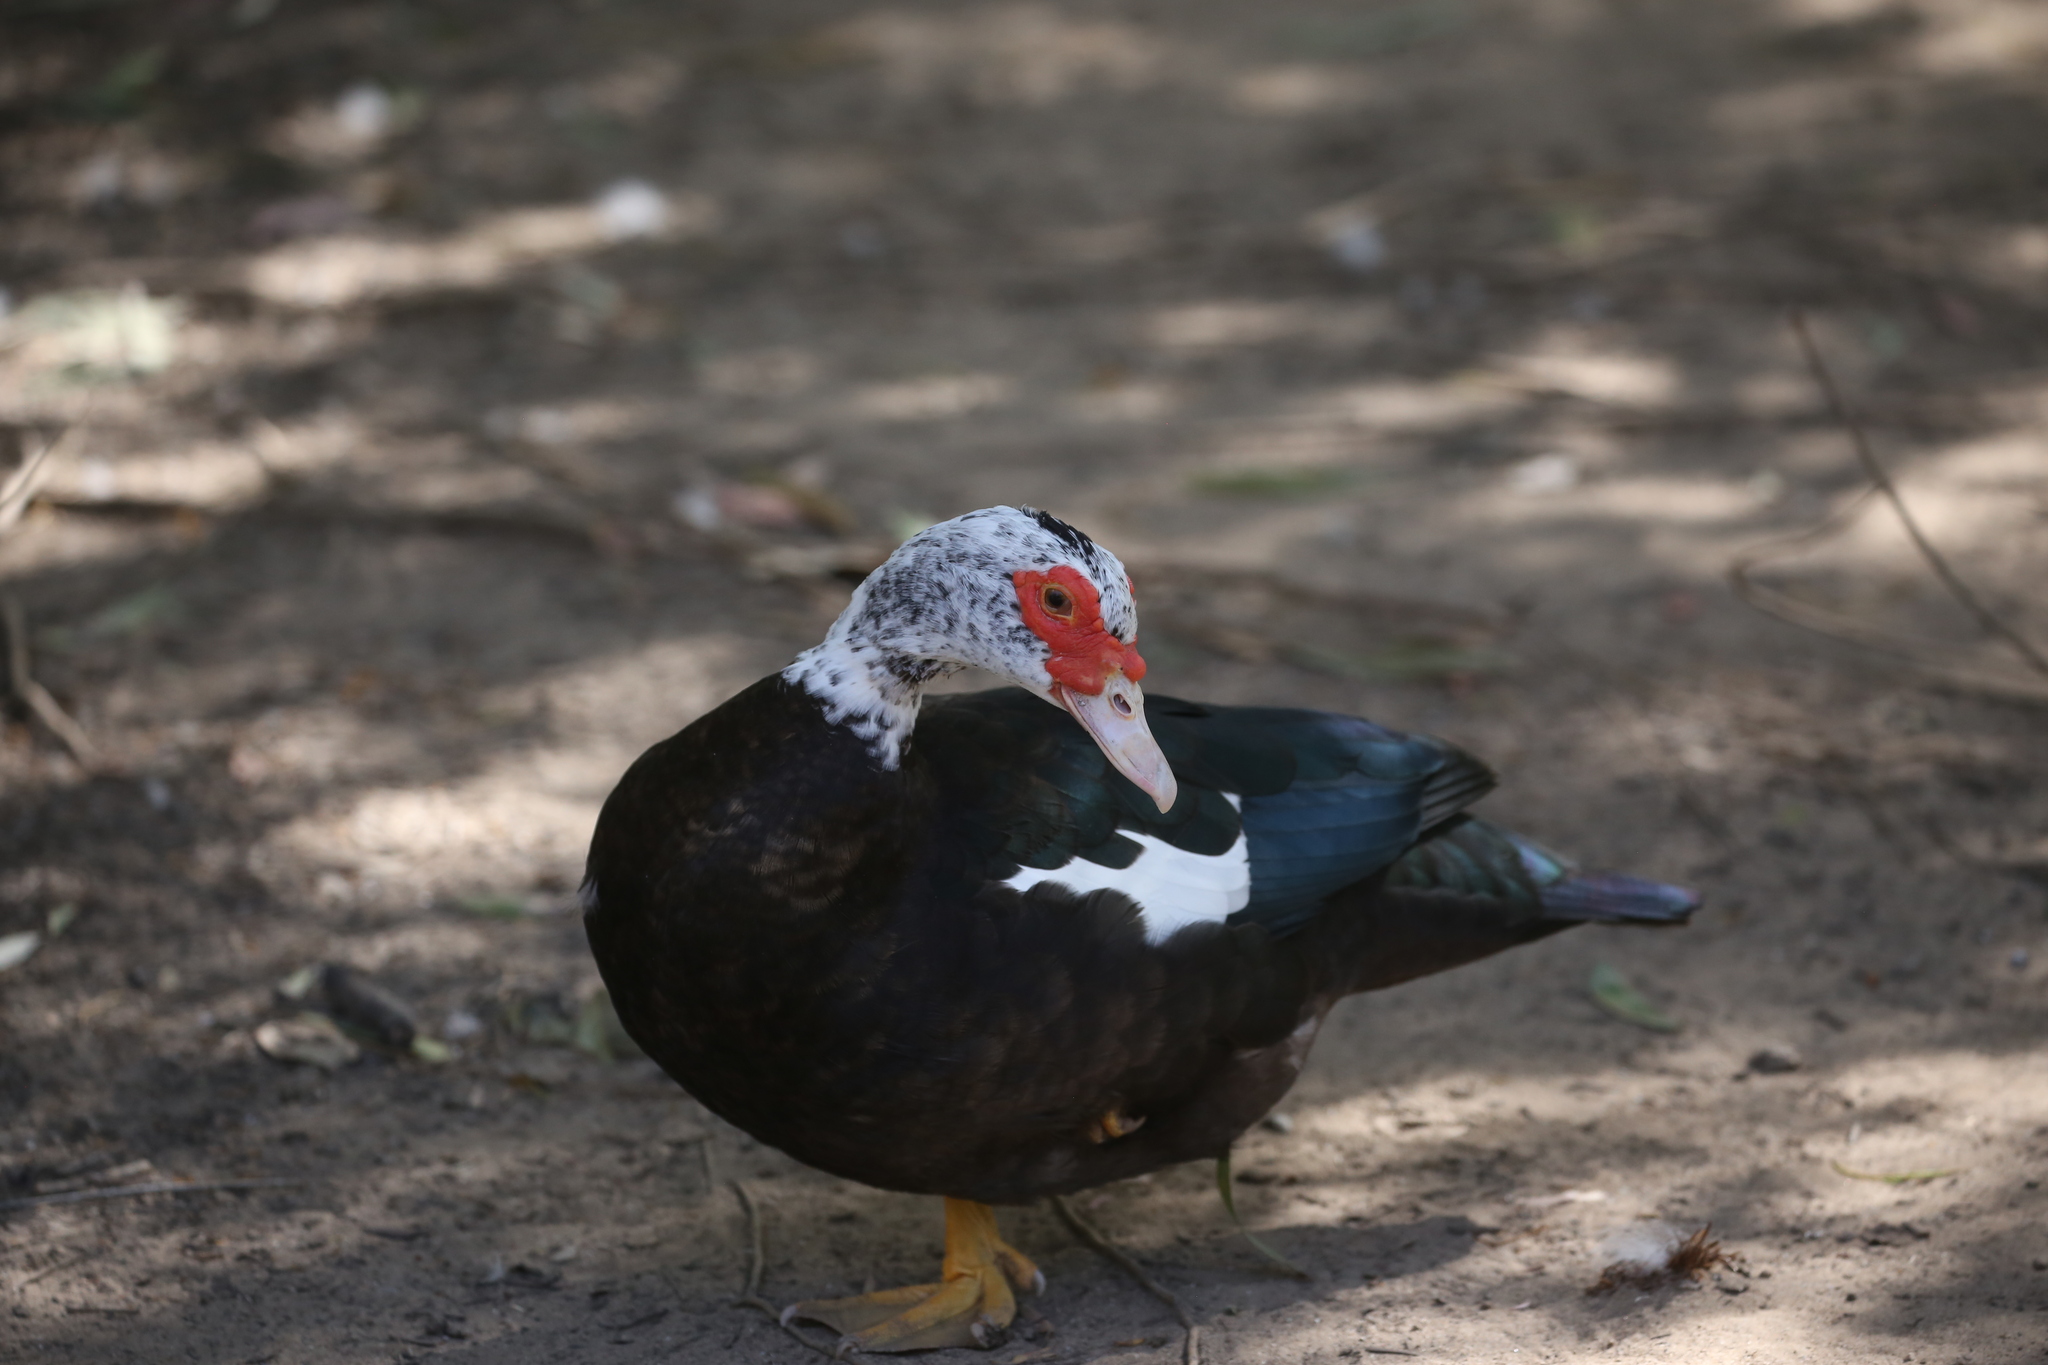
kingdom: Animalia
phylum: Chordata
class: Aves
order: Anseriformes
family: Anatidae
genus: Cairina
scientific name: Cairina moschata
